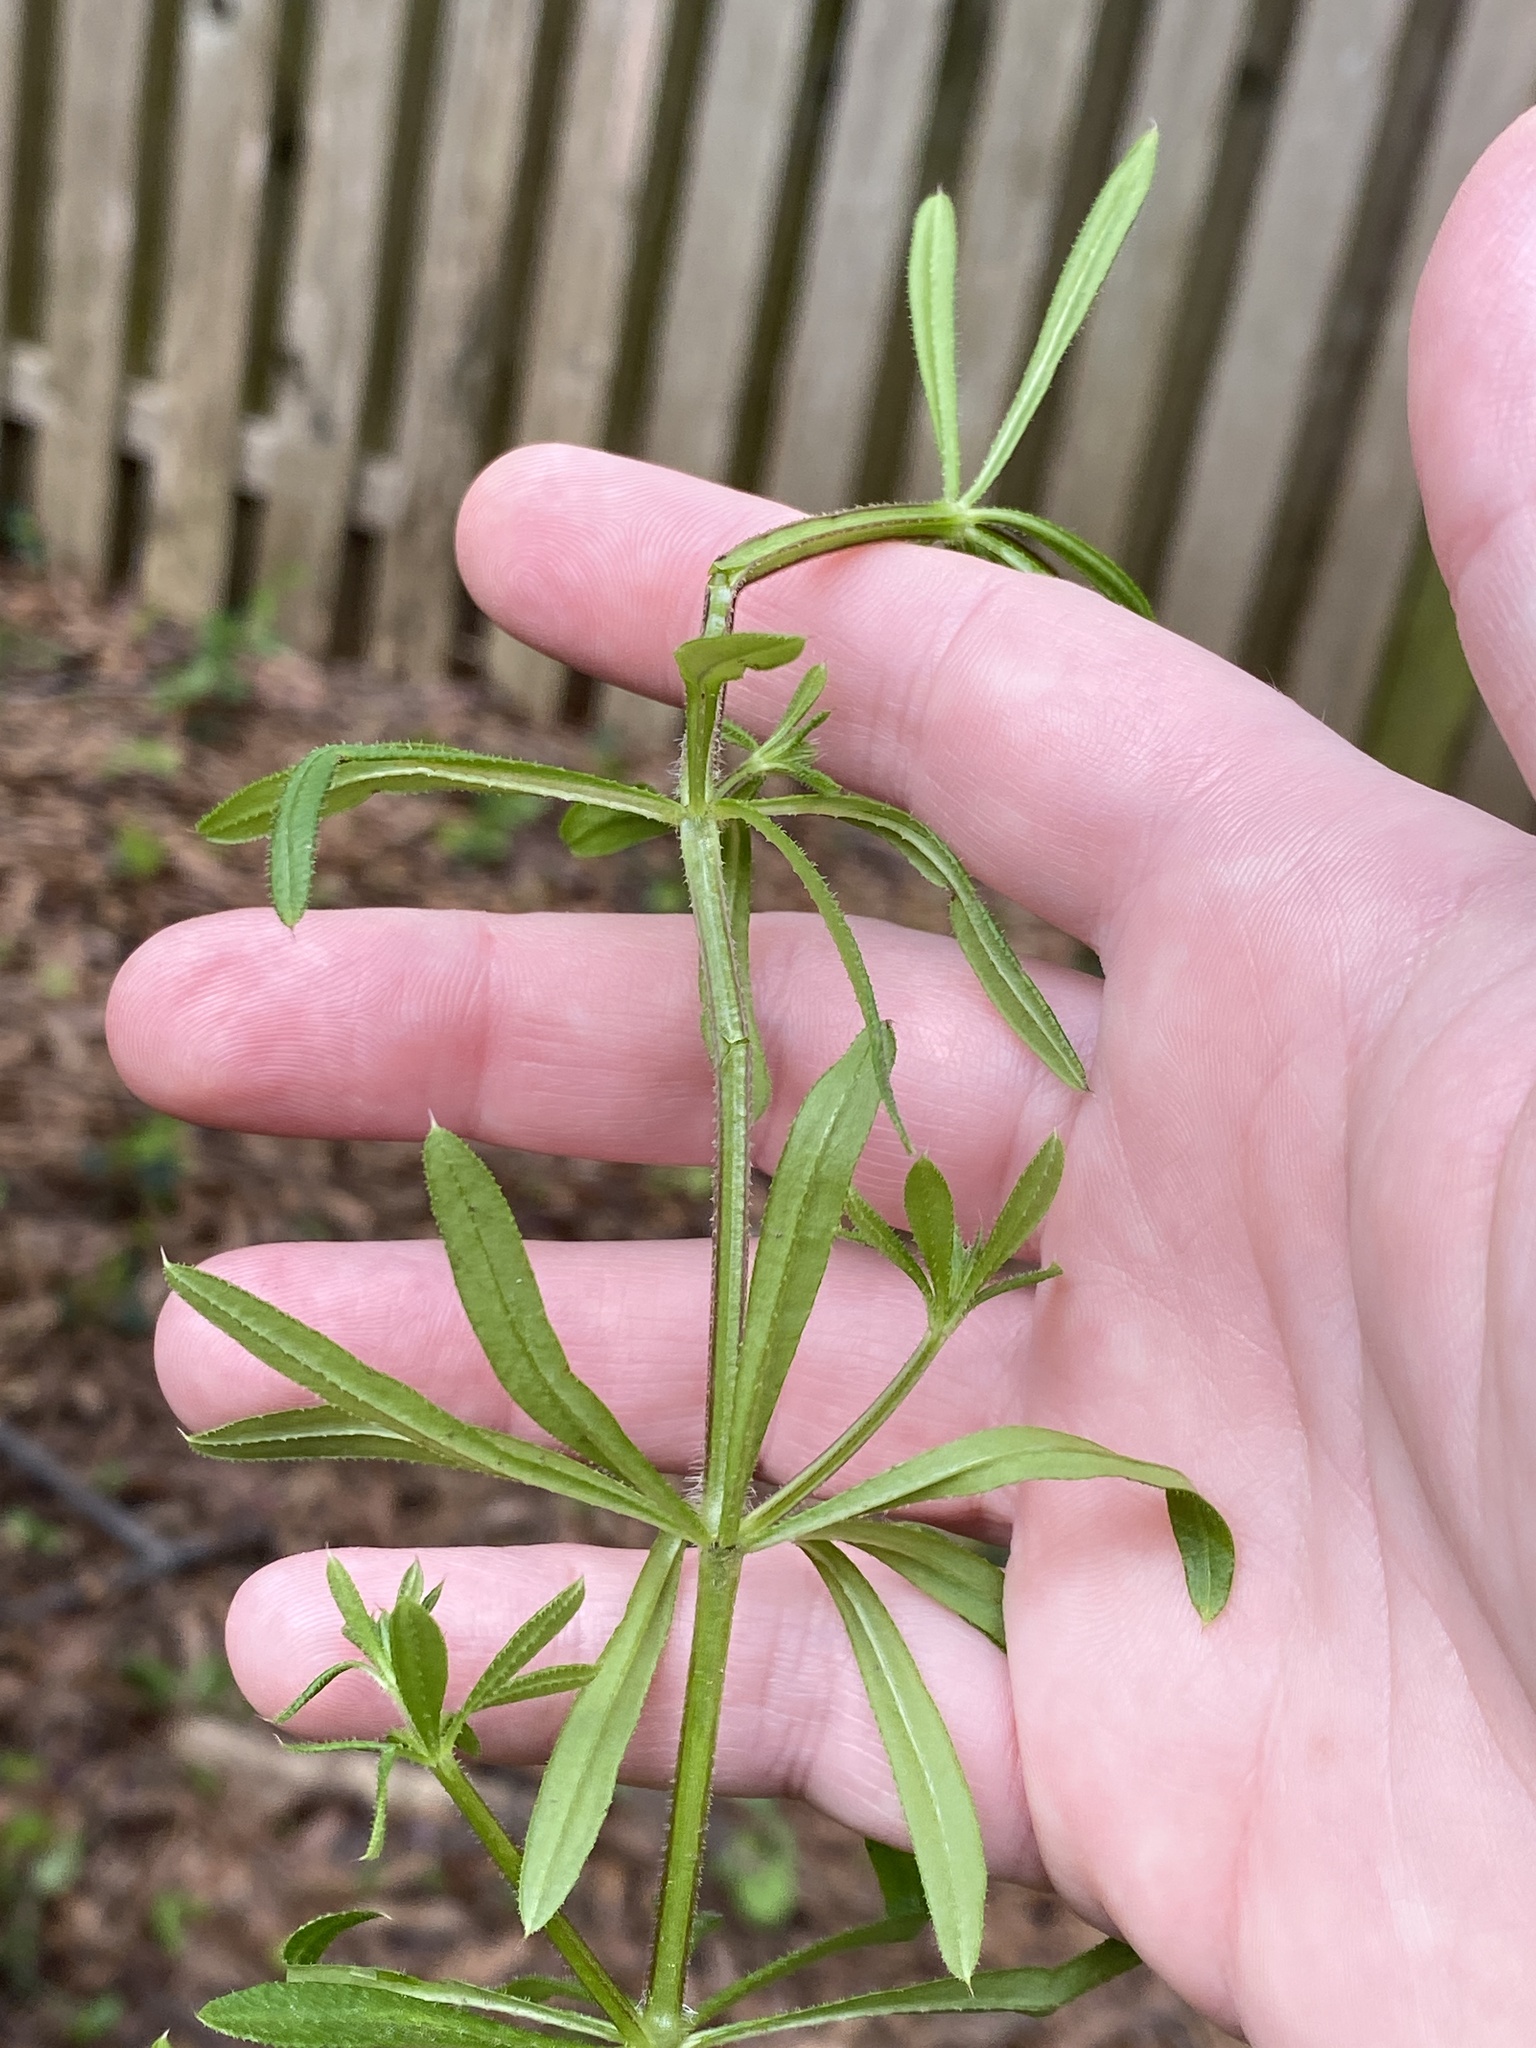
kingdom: Plantae
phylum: Tracheophyta
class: Magnoliopsida
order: Gentianales
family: Rubiaceae
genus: Galium
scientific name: Galium aparine
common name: Cleavers
